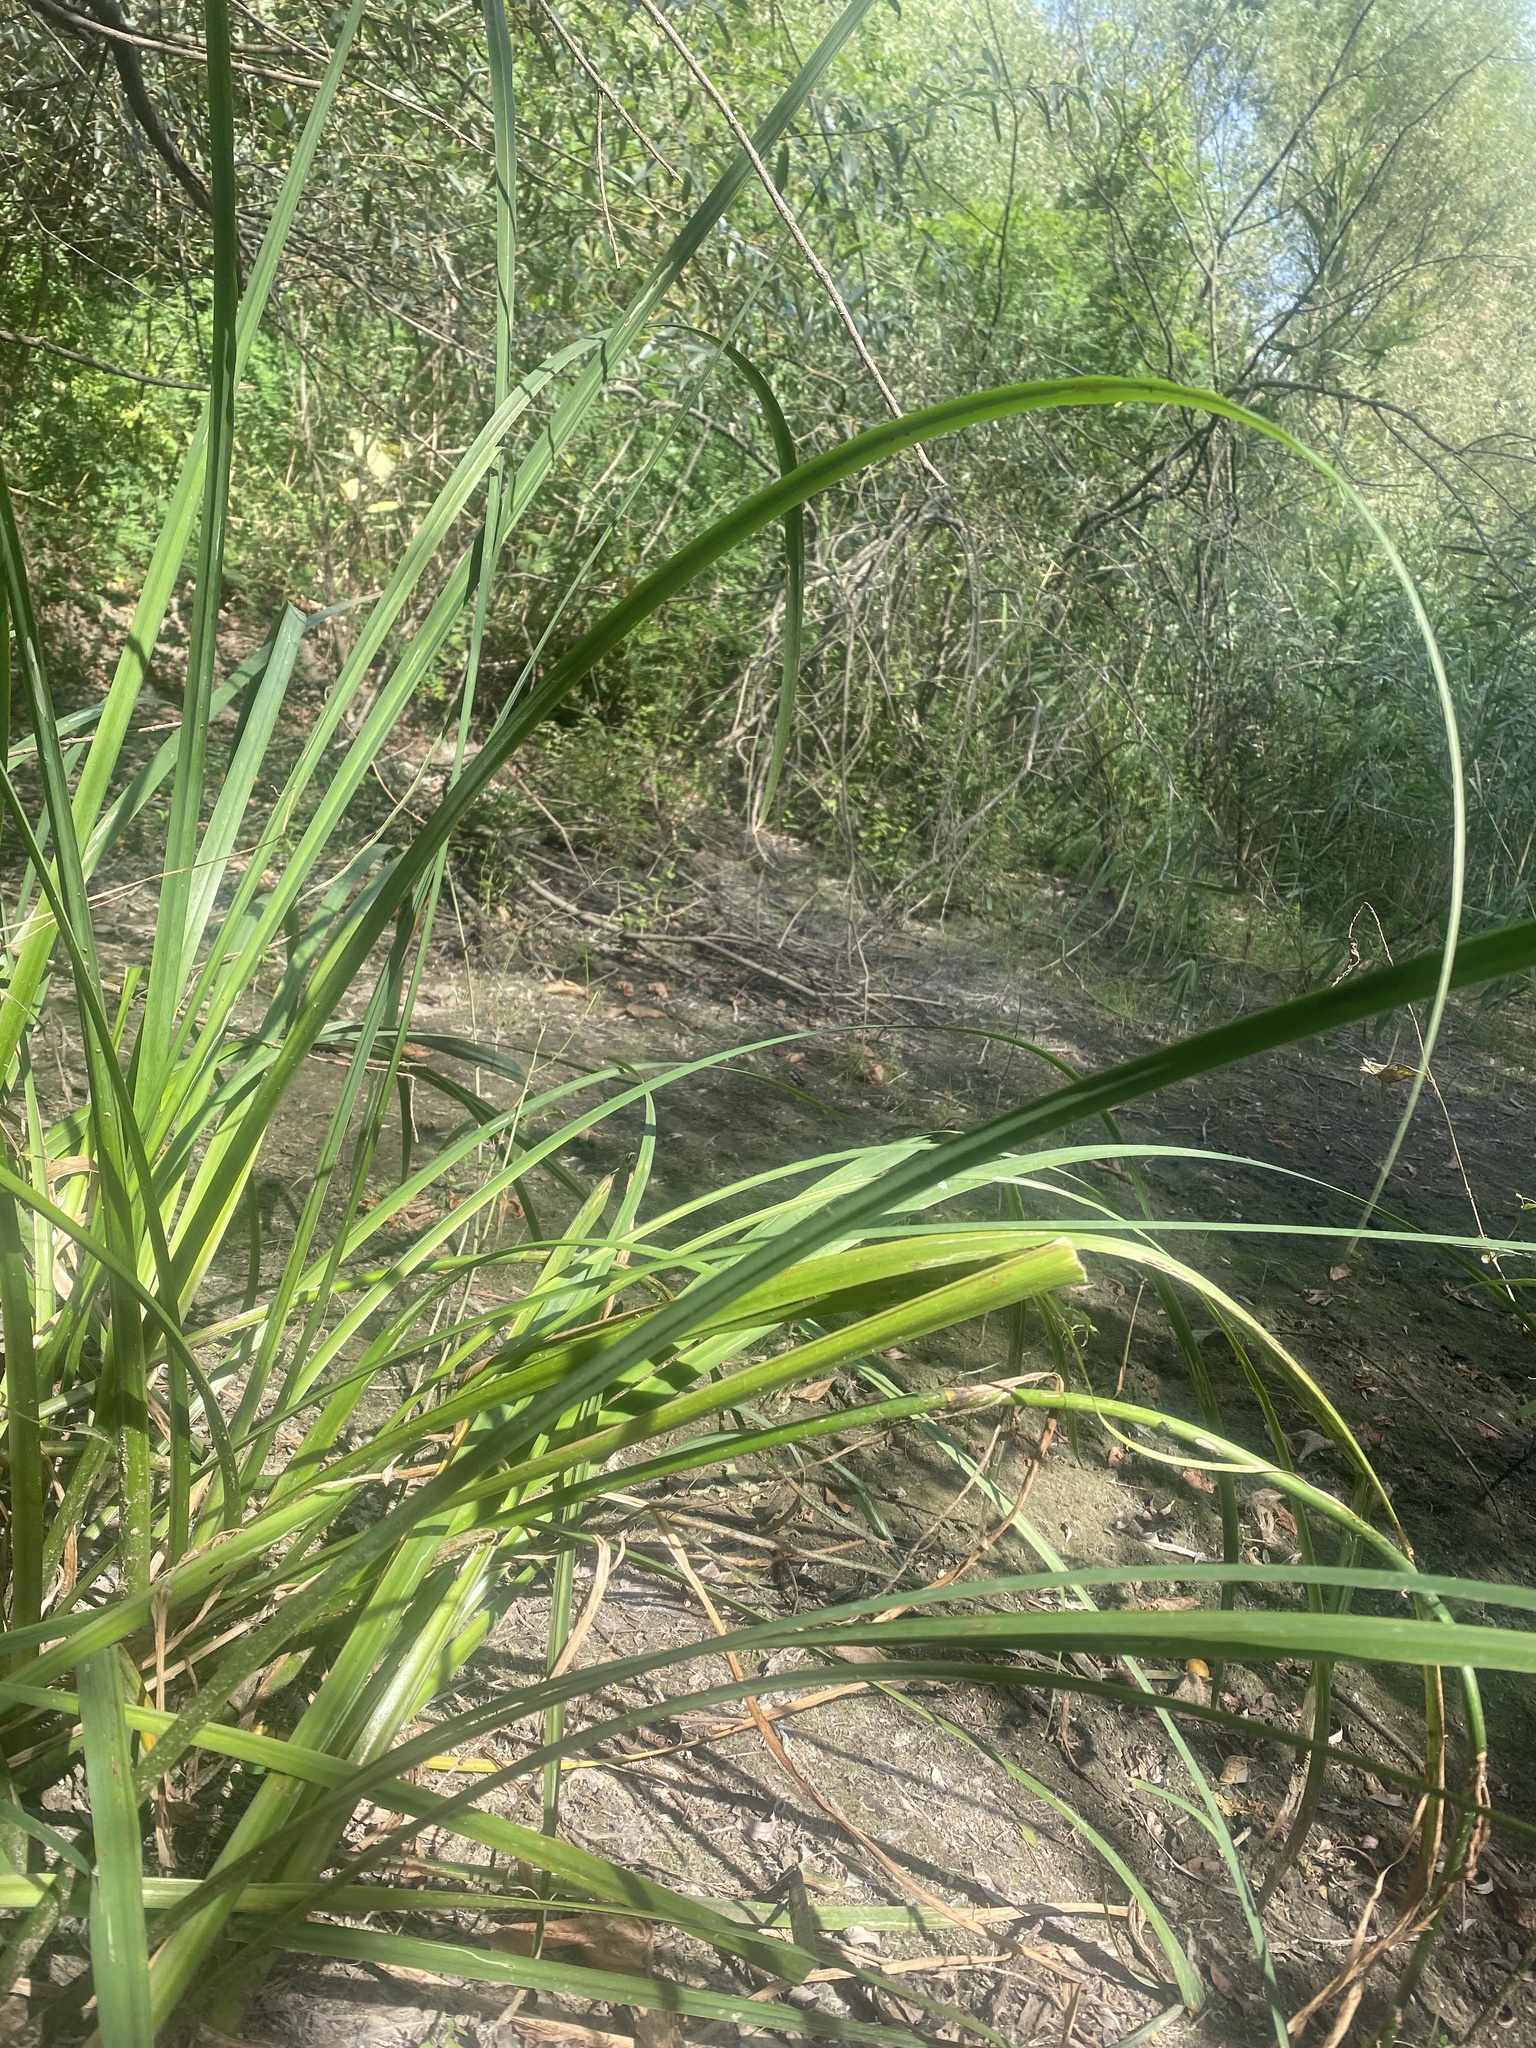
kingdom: Plantae
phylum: Tracheophyta
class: Liliopsida
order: Asparagales
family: Iridaceae
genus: Iris
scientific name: Iris pseudacorus
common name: Yellow flag
